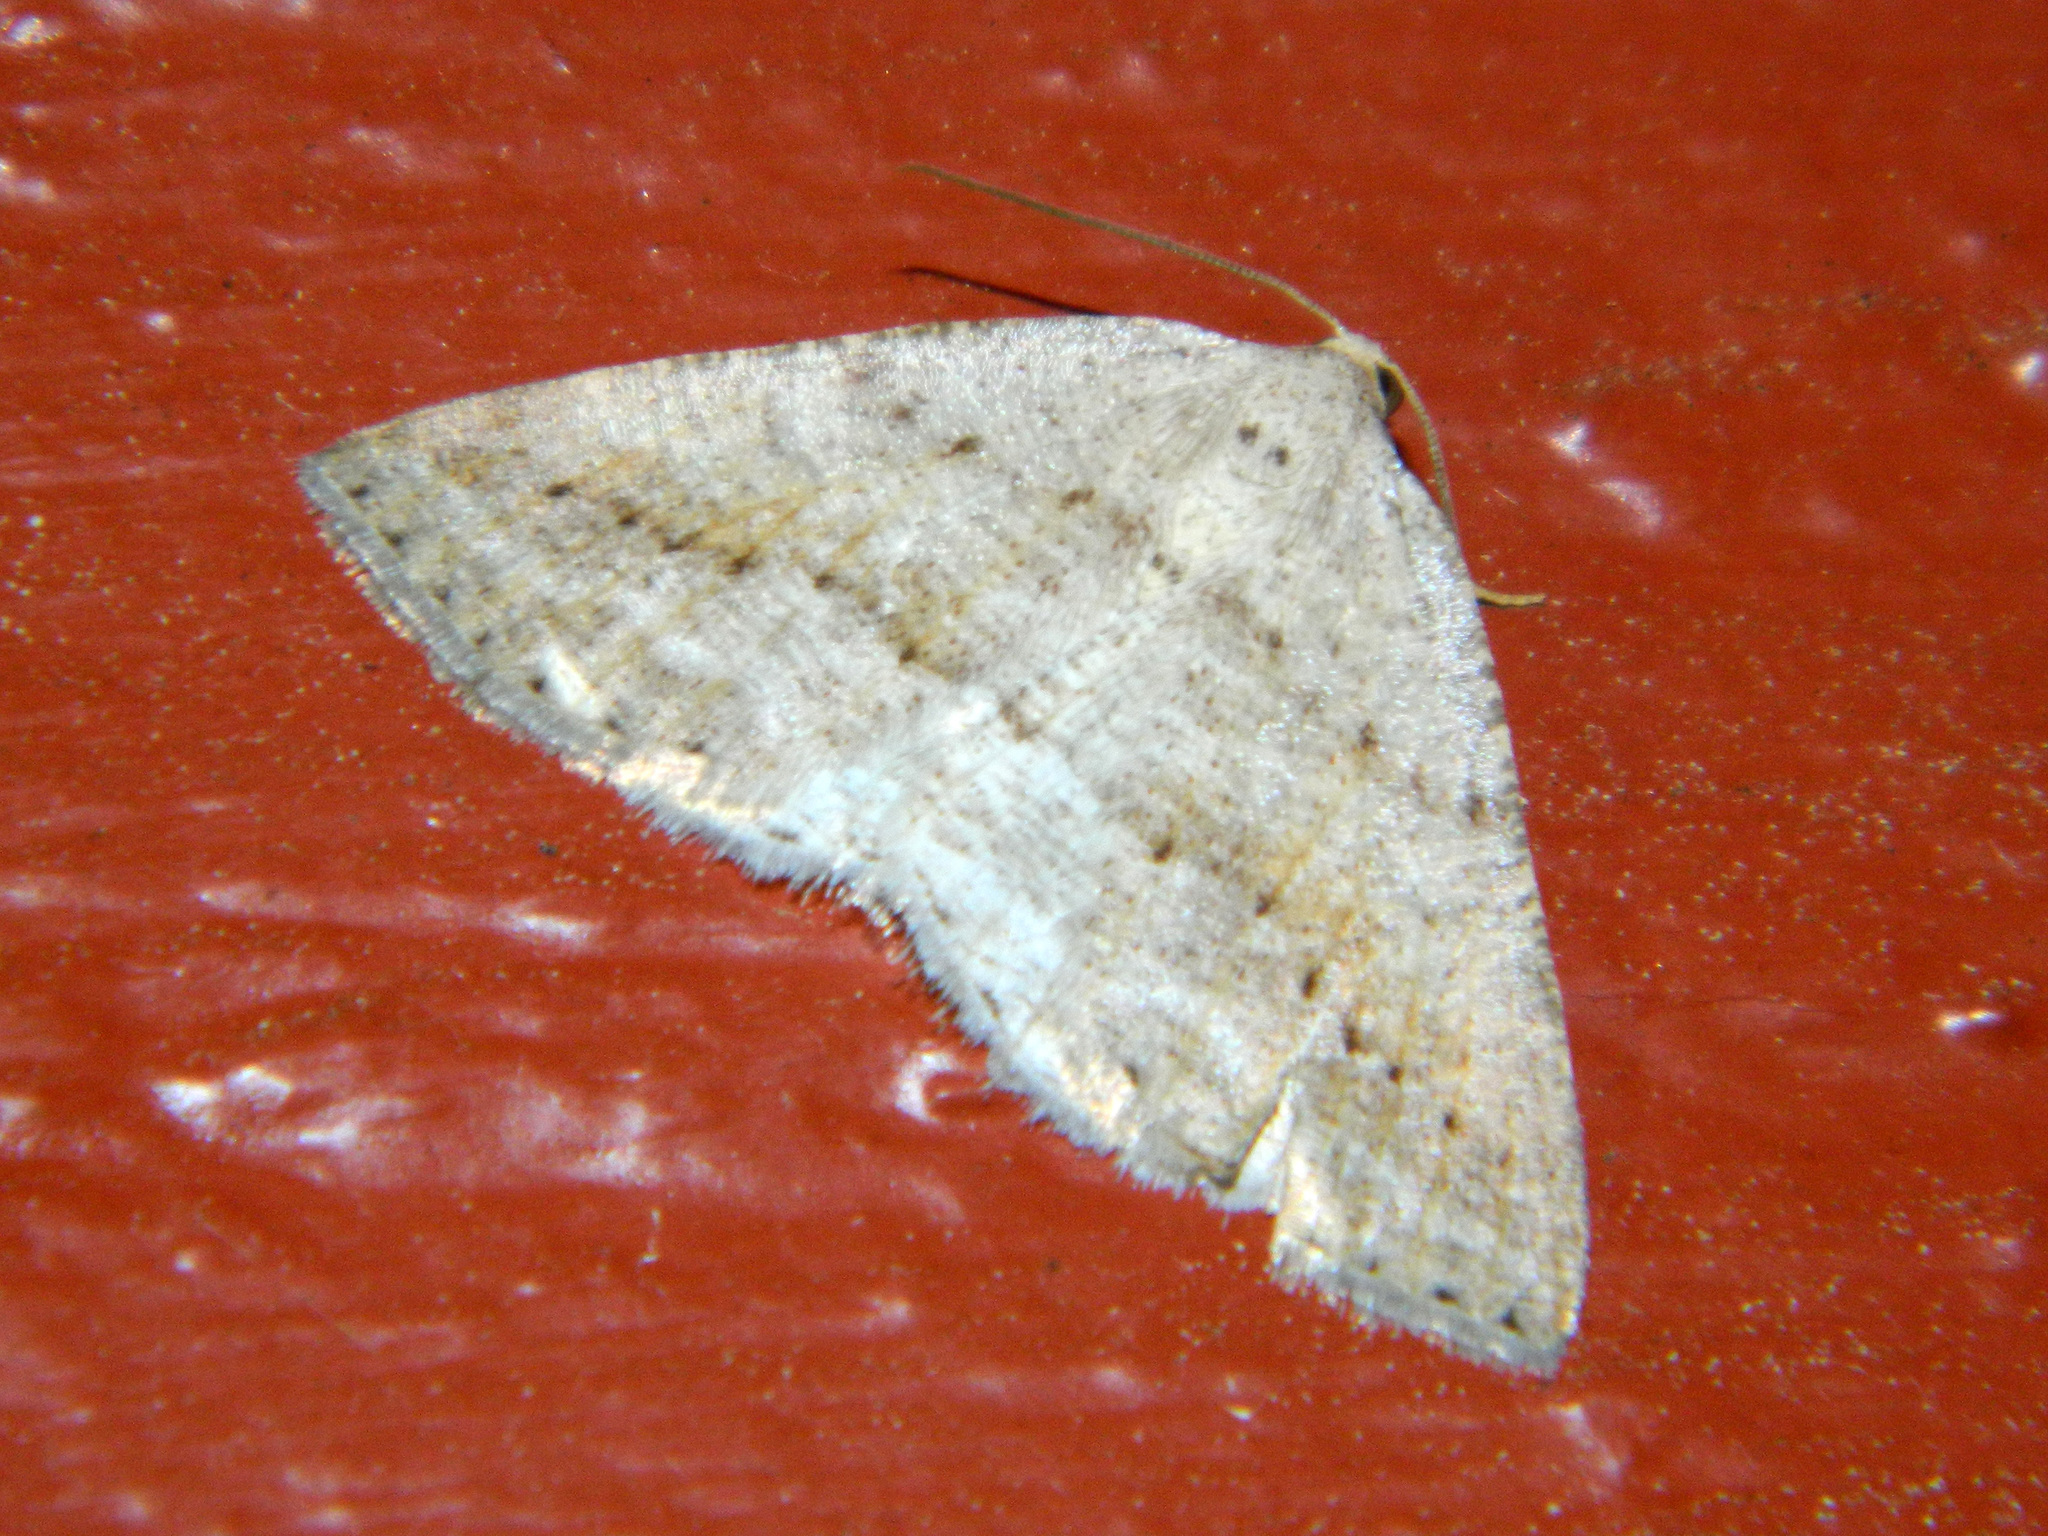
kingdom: Animalia
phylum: Arthropoda
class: Insecta
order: Lepidoptera
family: Geometridae
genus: Tacparia
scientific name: Tacparia detersata
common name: Pale alder moth
